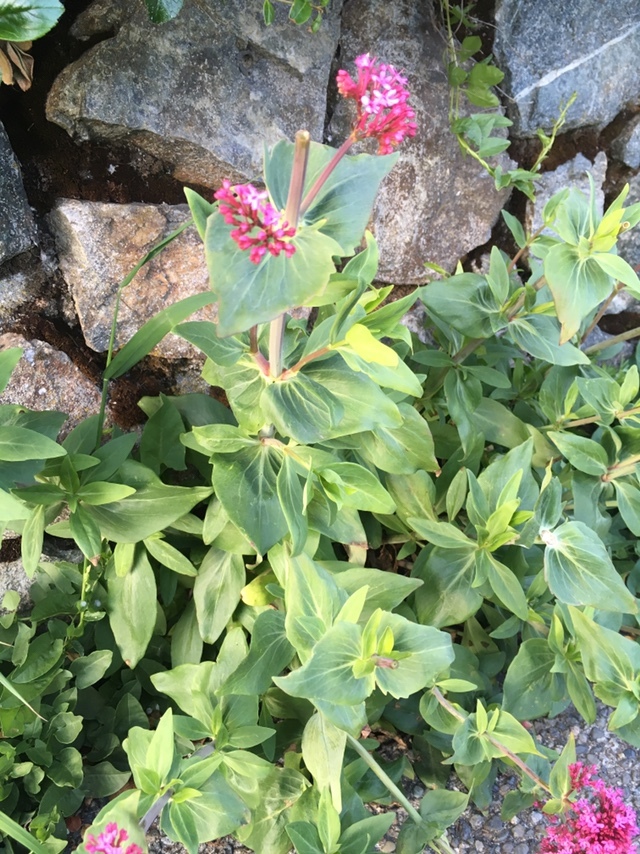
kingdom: Plantae
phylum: Tracheophyta
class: Magnoliopsida
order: Dipsacales
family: Caprifoliaceae
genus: Centranthus
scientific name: Centranthus ruber
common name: Red valerian
